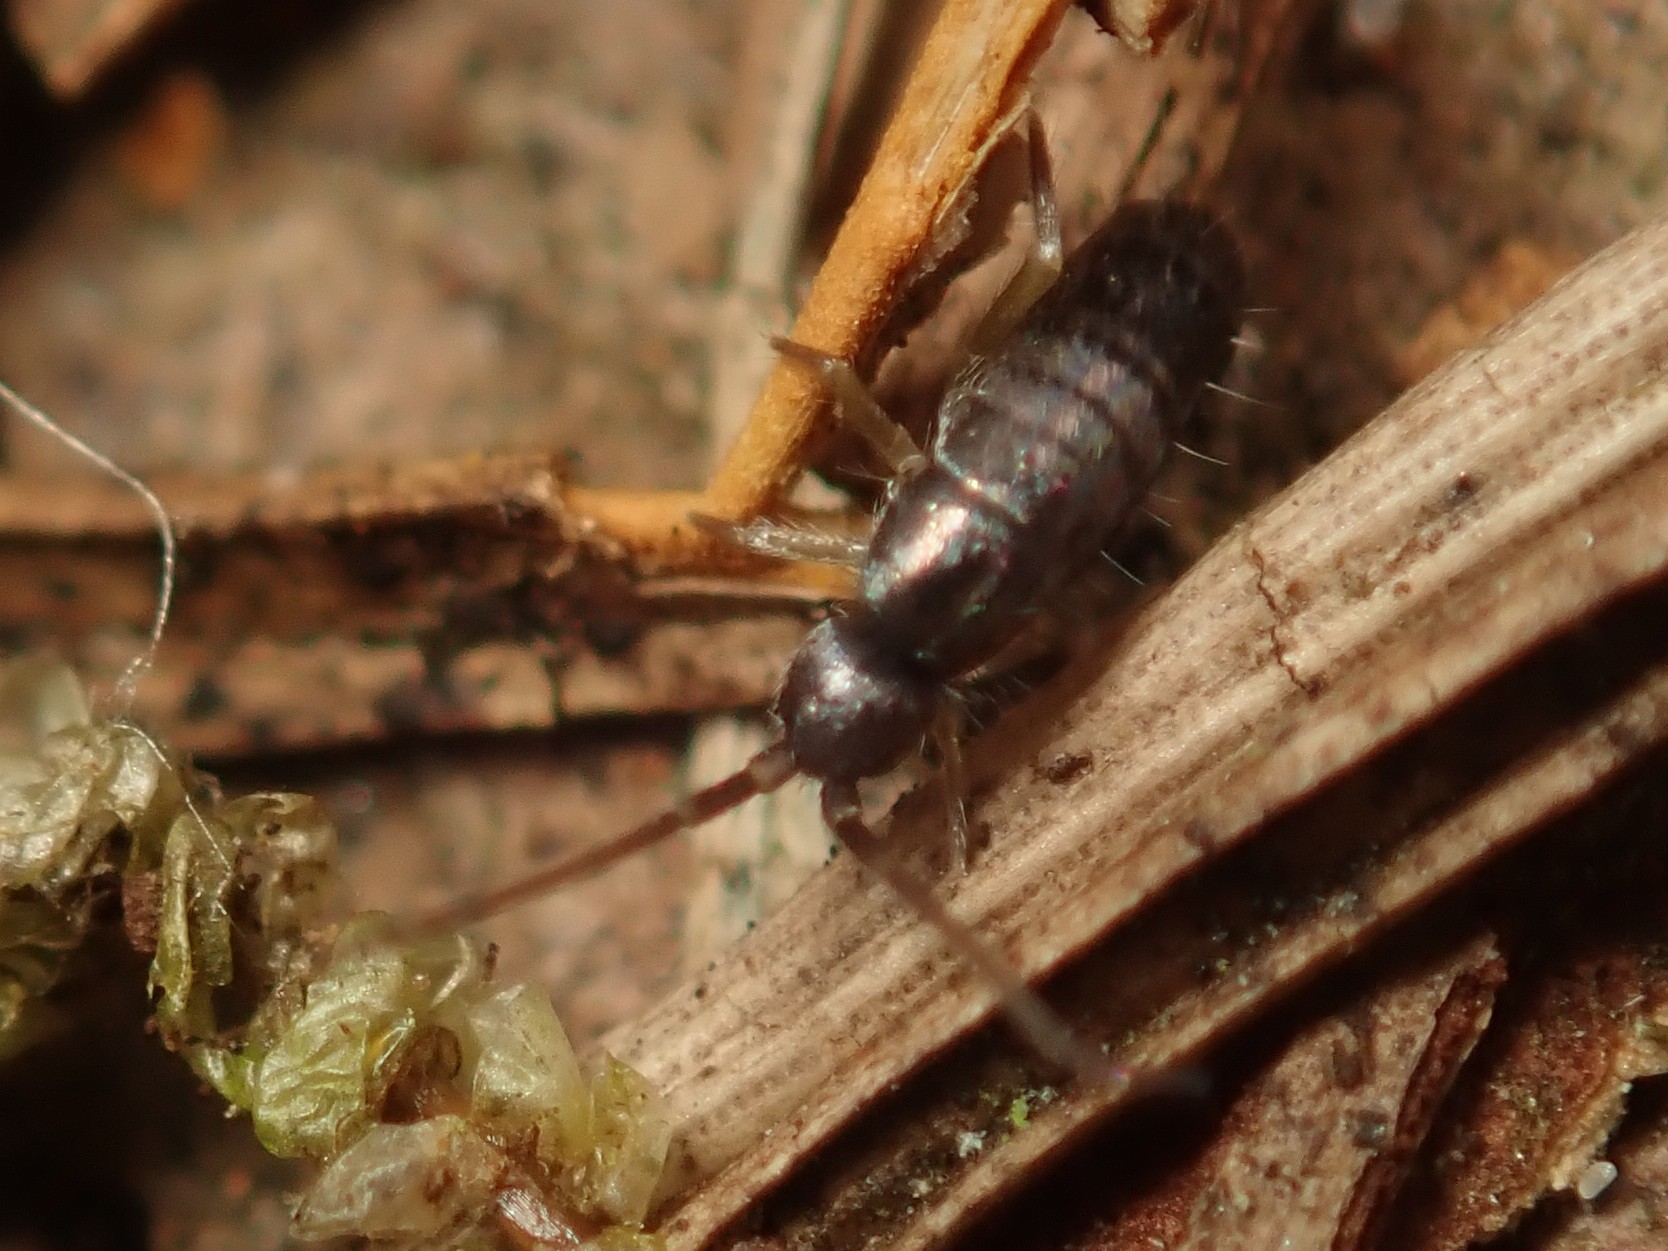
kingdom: Animalia
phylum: Arthropoda
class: Collembola
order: Entomobryomorpha
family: Tomoceridae
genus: Tomocerus
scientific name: Tomocerus vulgaris
